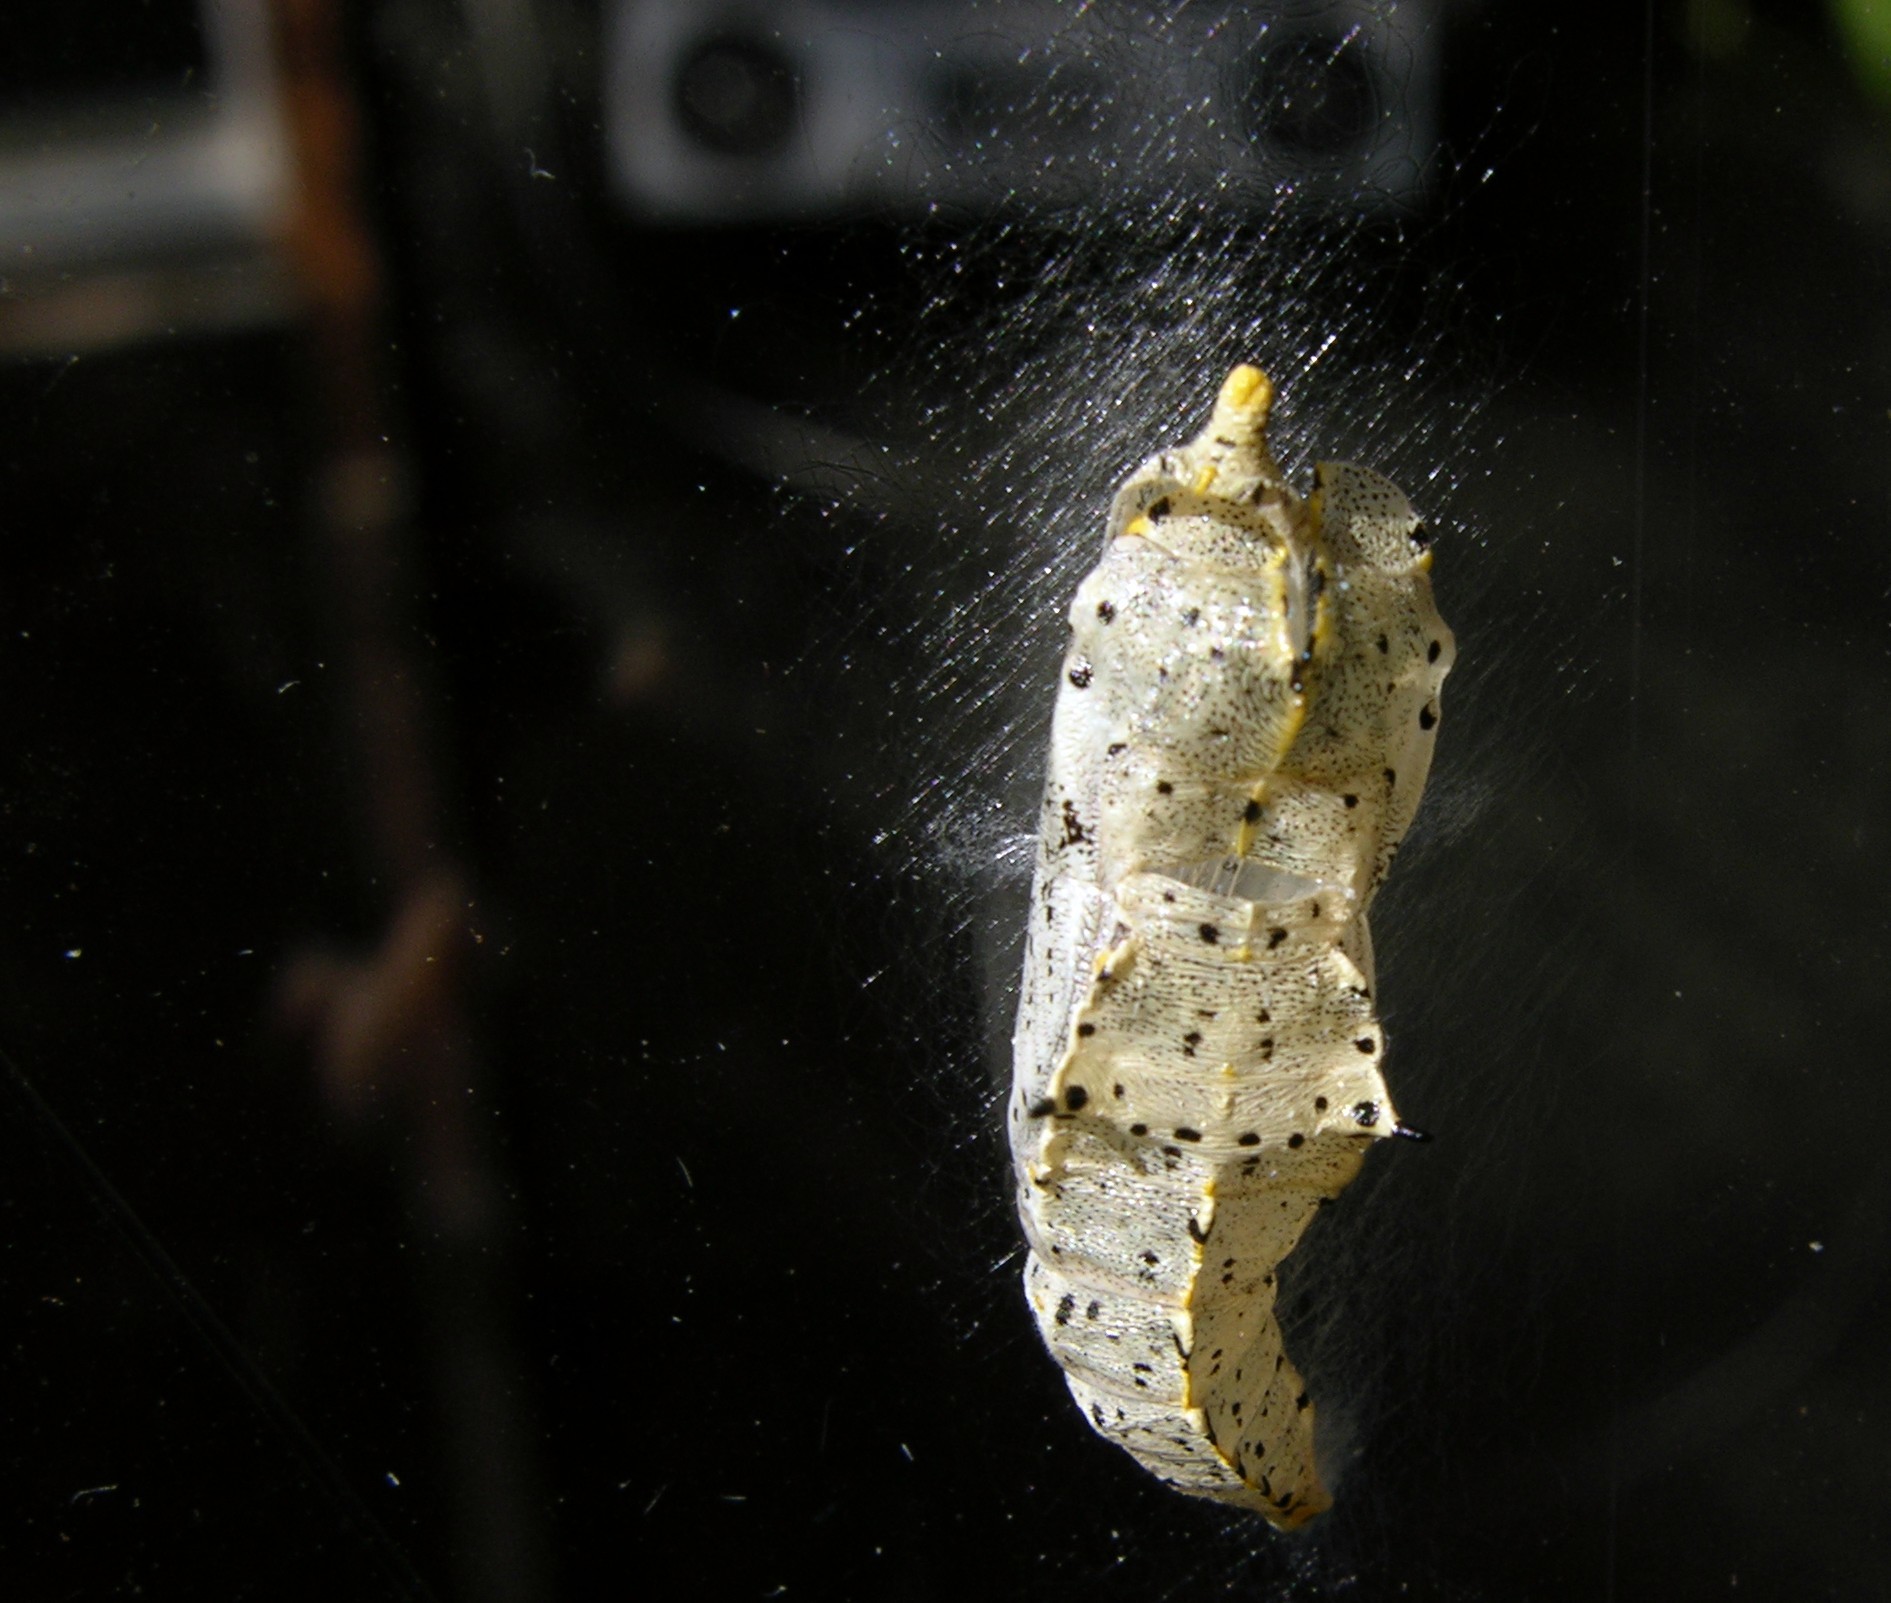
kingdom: Animalia
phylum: Arthropoda
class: Insecta
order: Lepidoptera
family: Pieridae
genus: Pieris
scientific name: Pieris brassicae
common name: Large white
